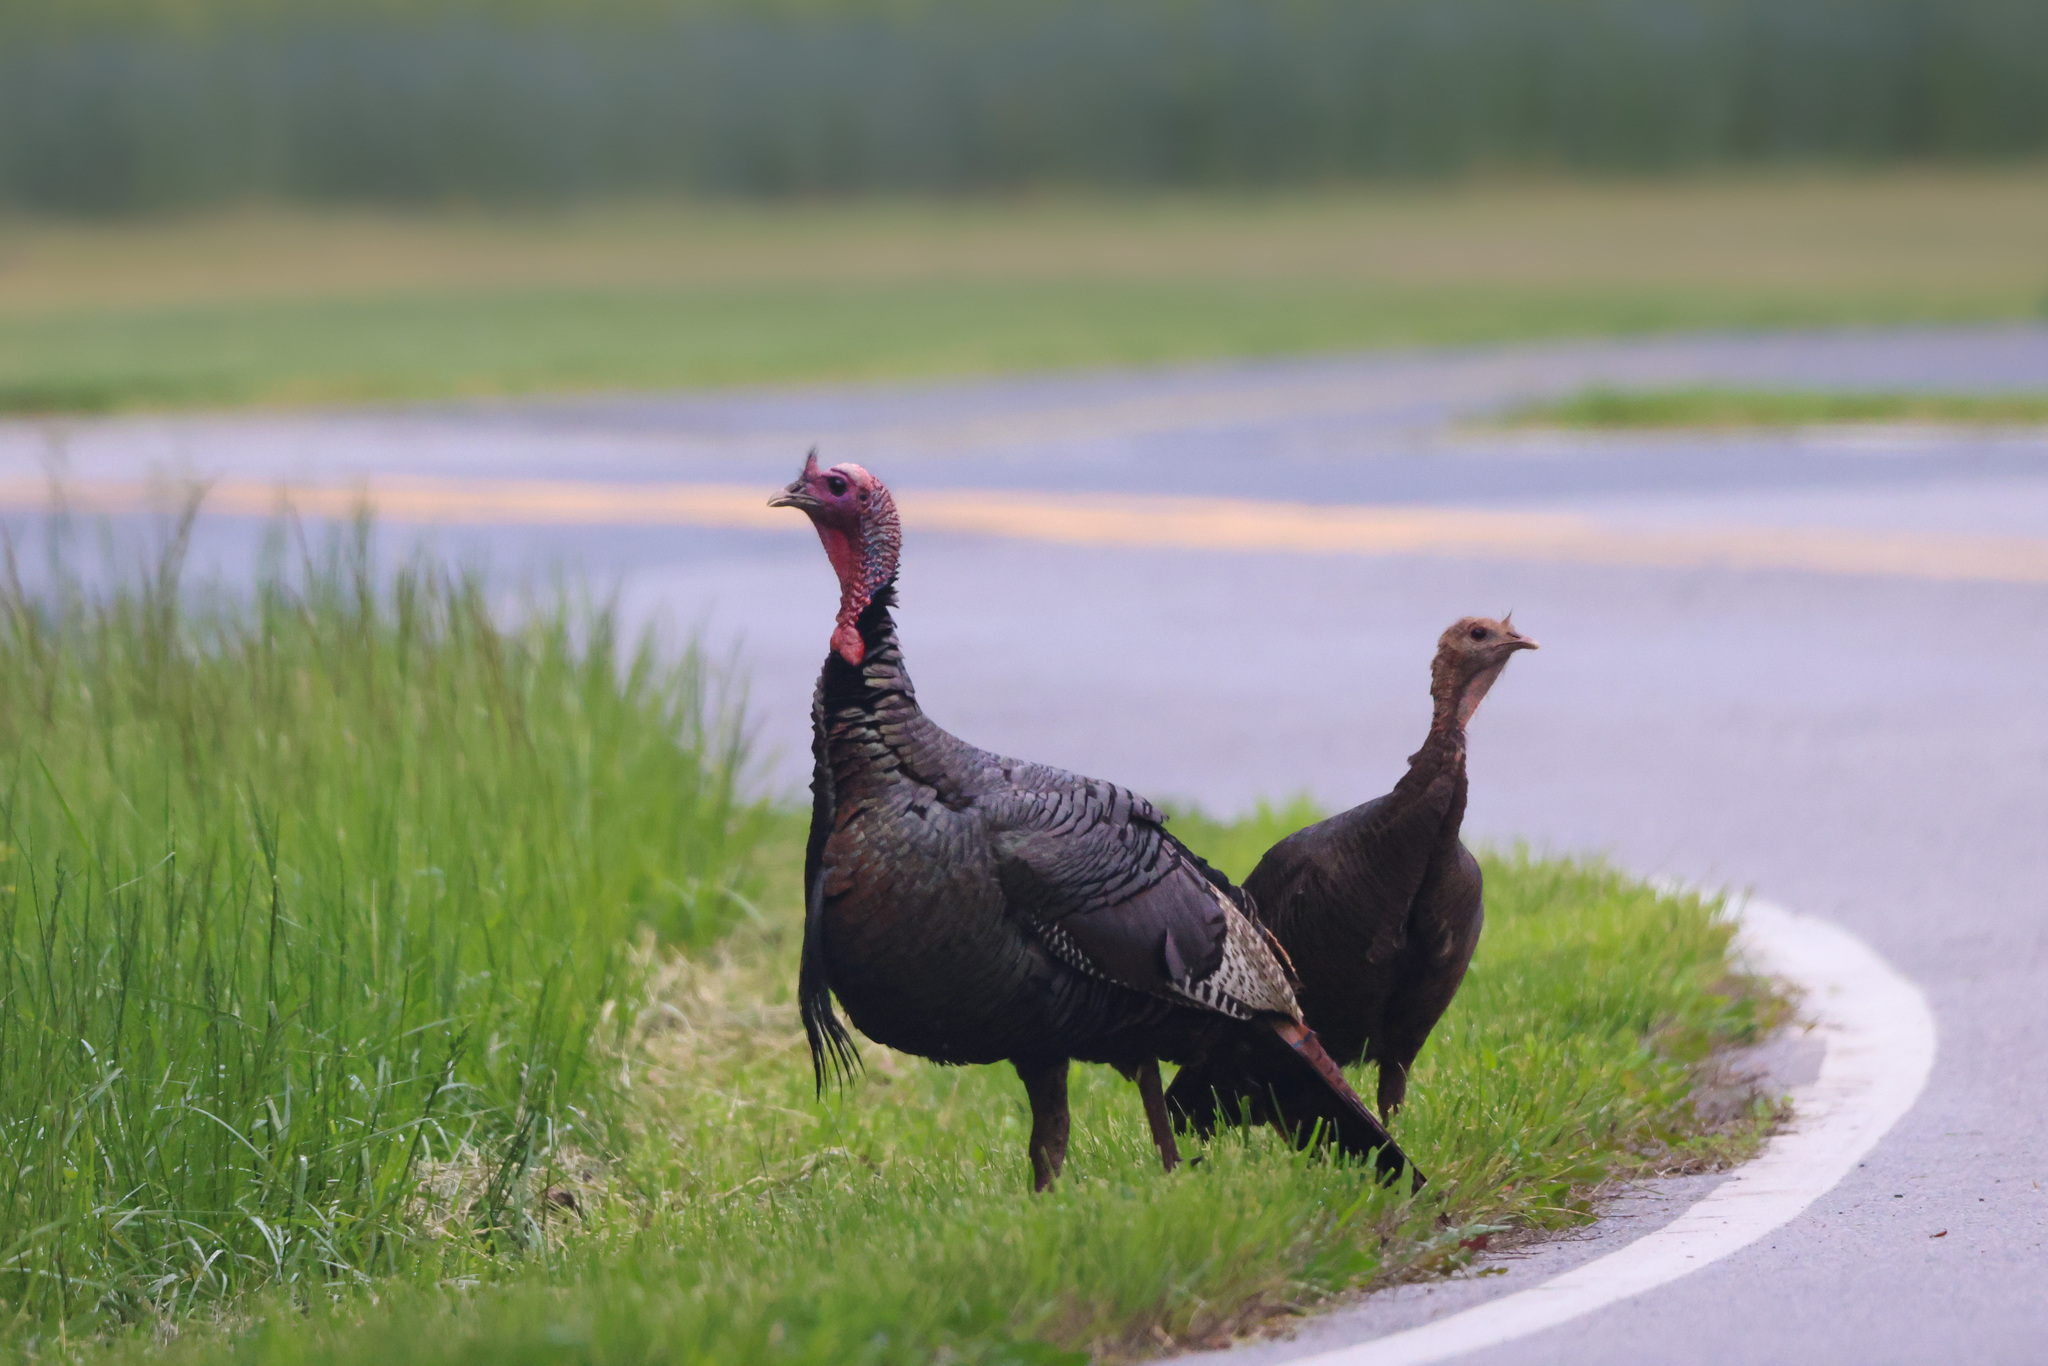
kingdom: Animalia
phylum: Chordata
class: Aves
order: Galliformes
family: Phasianidae
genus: Meleagris
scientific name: Meleagris gallopavo
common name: Wild turkey
